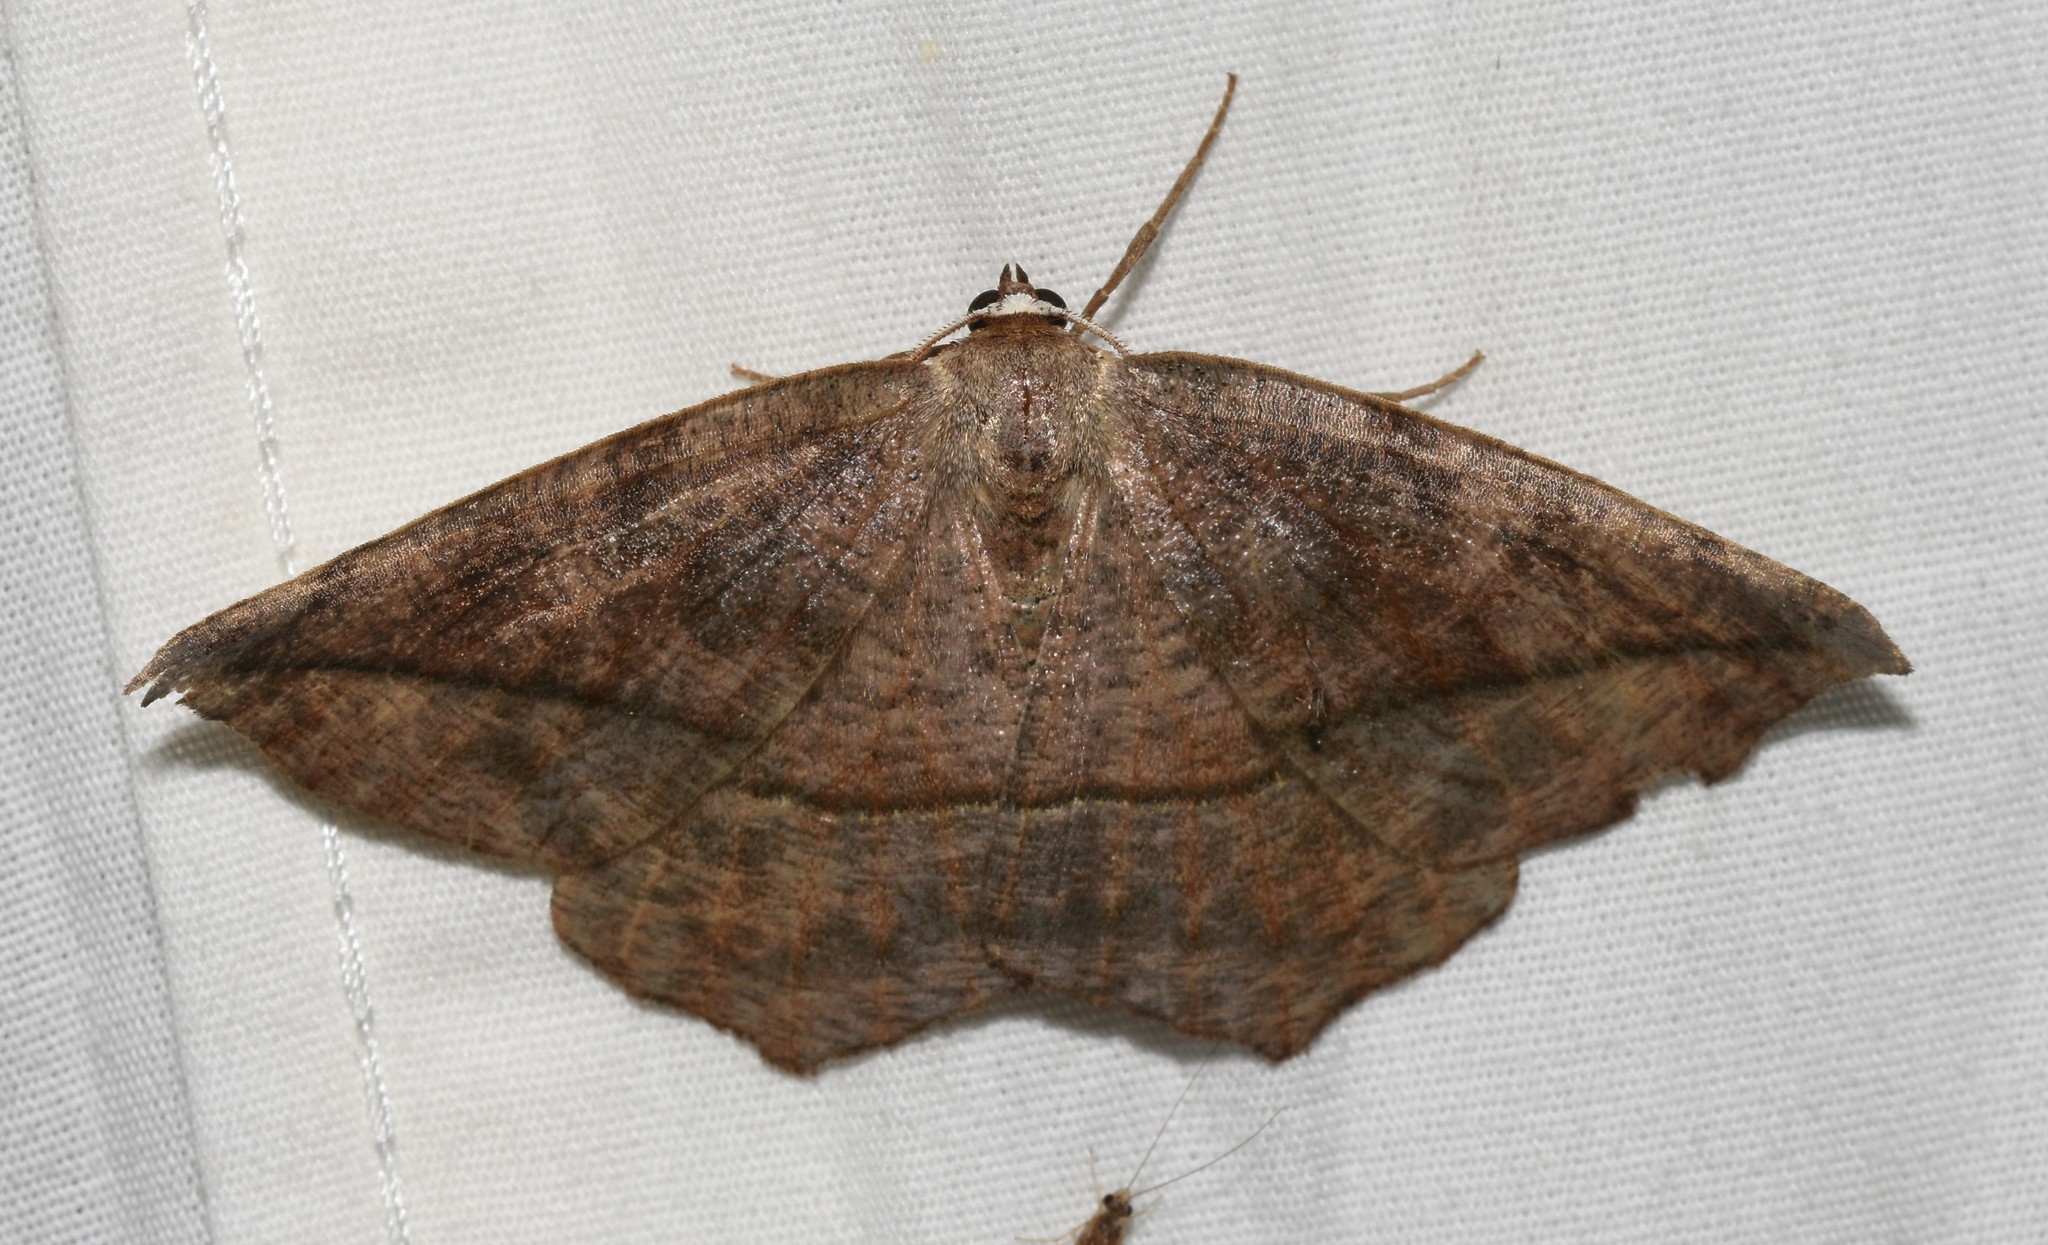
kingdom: Animalia
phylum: Arthropoda
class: Insecta
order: Lepidoptera
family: Geometridae
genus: Eutrapela
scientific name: Eutrapela clemataria
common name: Curved-toothed geometer
